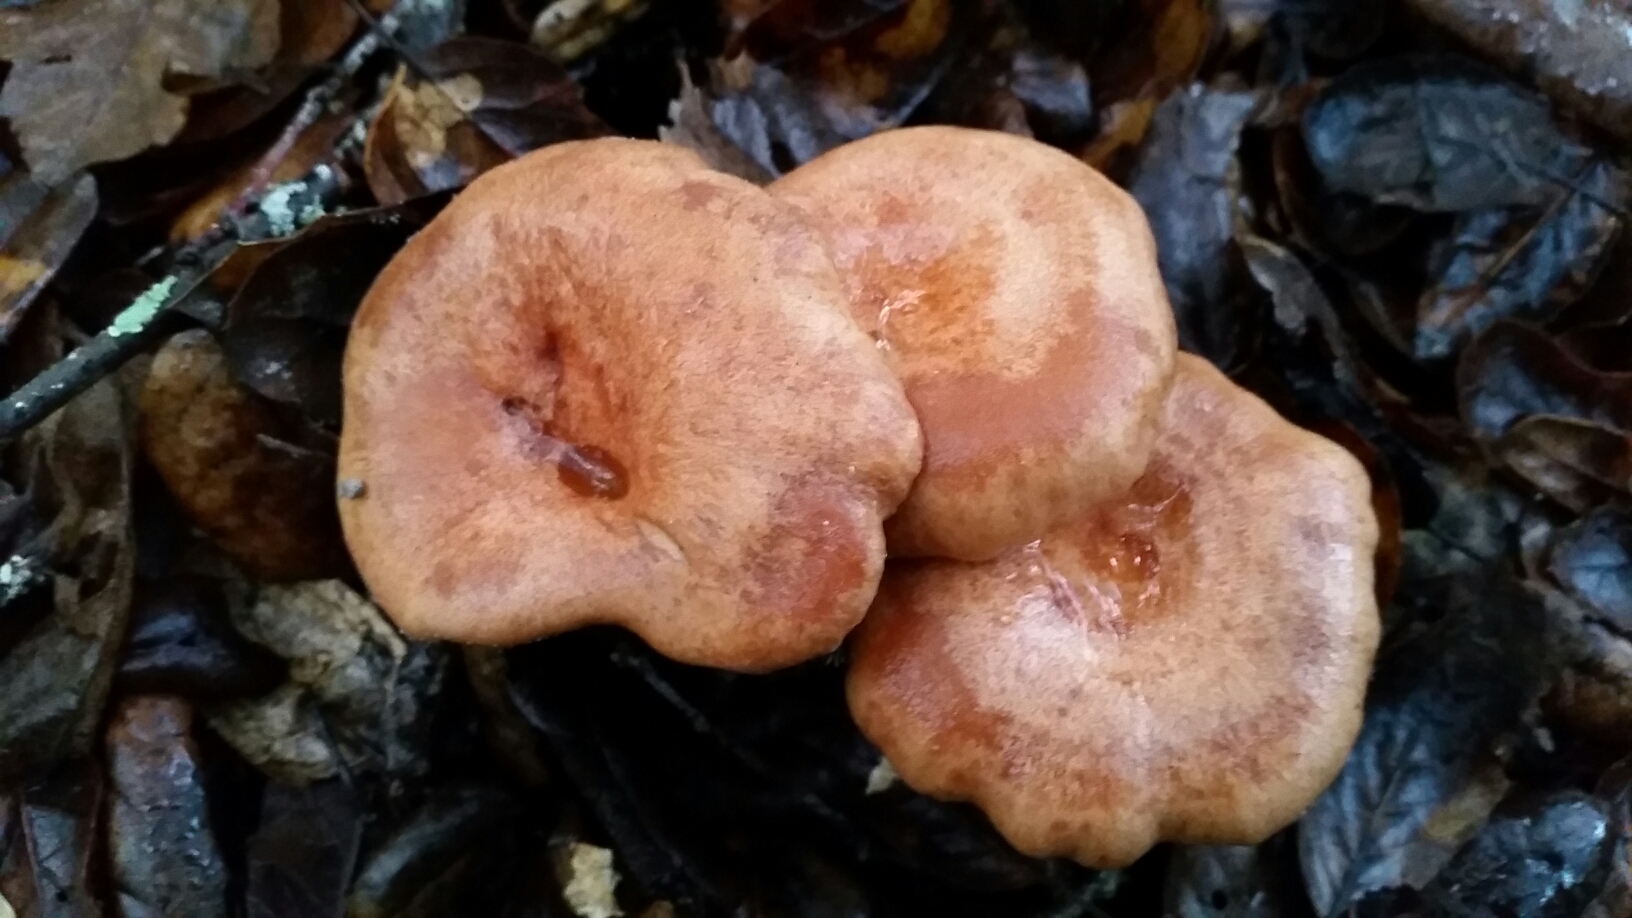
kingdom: Fungi
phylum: Basidiomycota
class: Agaricomycetes
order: Russulales
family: Russulaceae
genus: Lactarius
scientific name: Lactarius xanthogalactus
